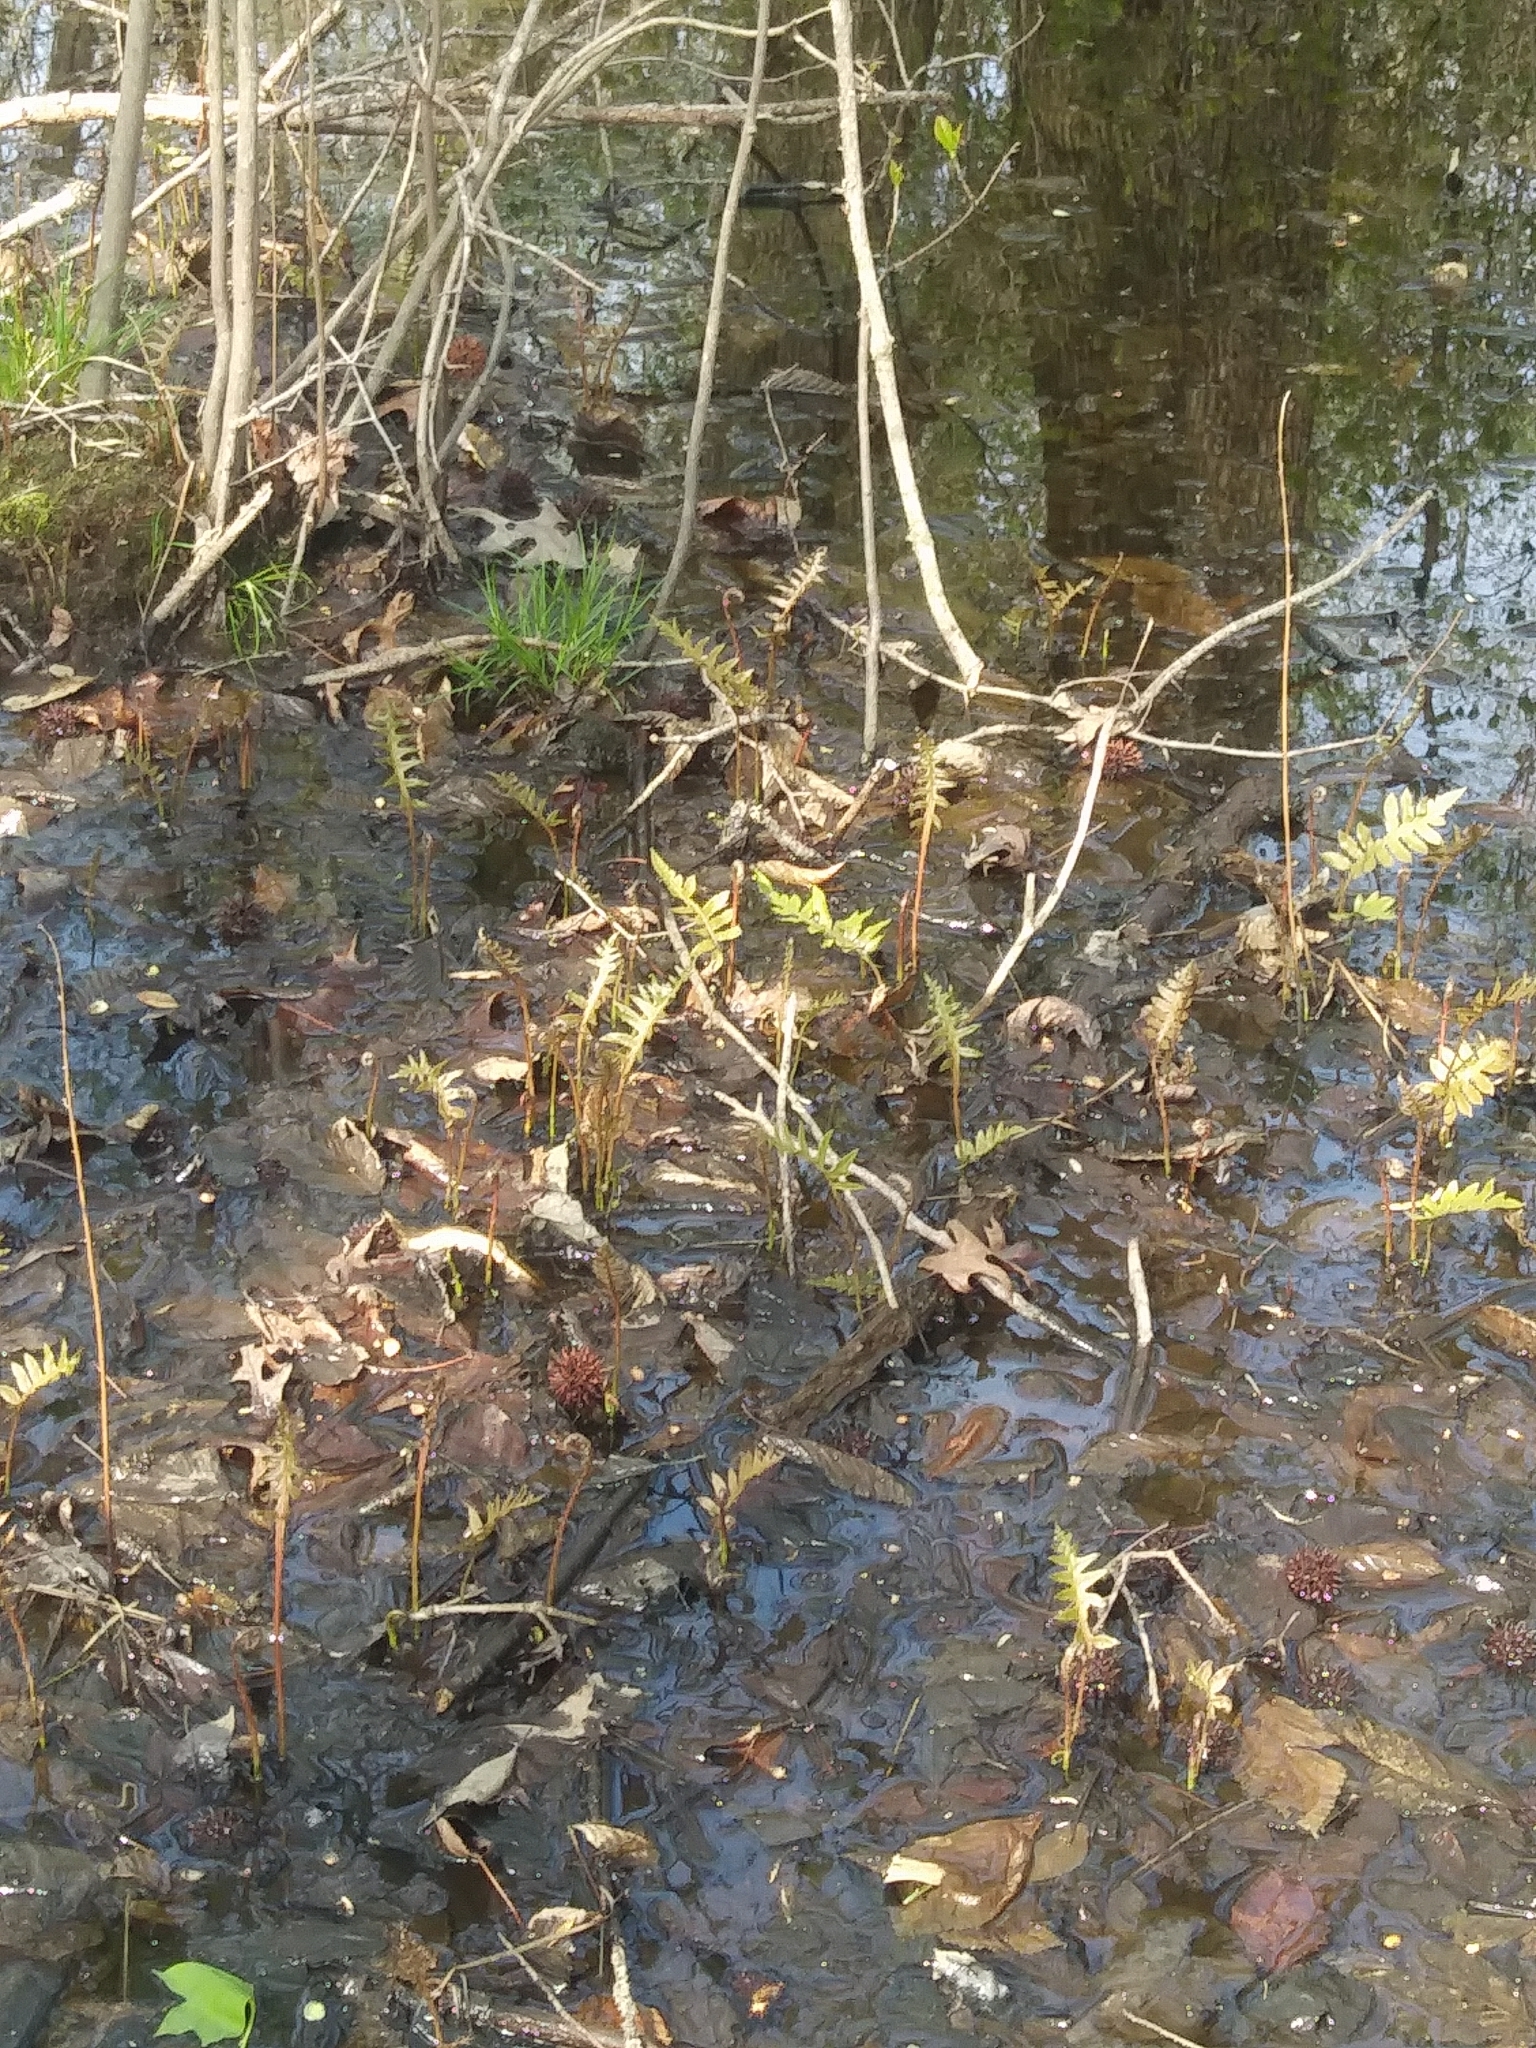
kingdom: Plantae
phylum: Tracheophyta
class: Polypodiopsida
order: Polypodiales
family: Blechnaceae
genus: Lorinseria
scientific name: Lorinseria areolata
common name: Dwarf chain fern
